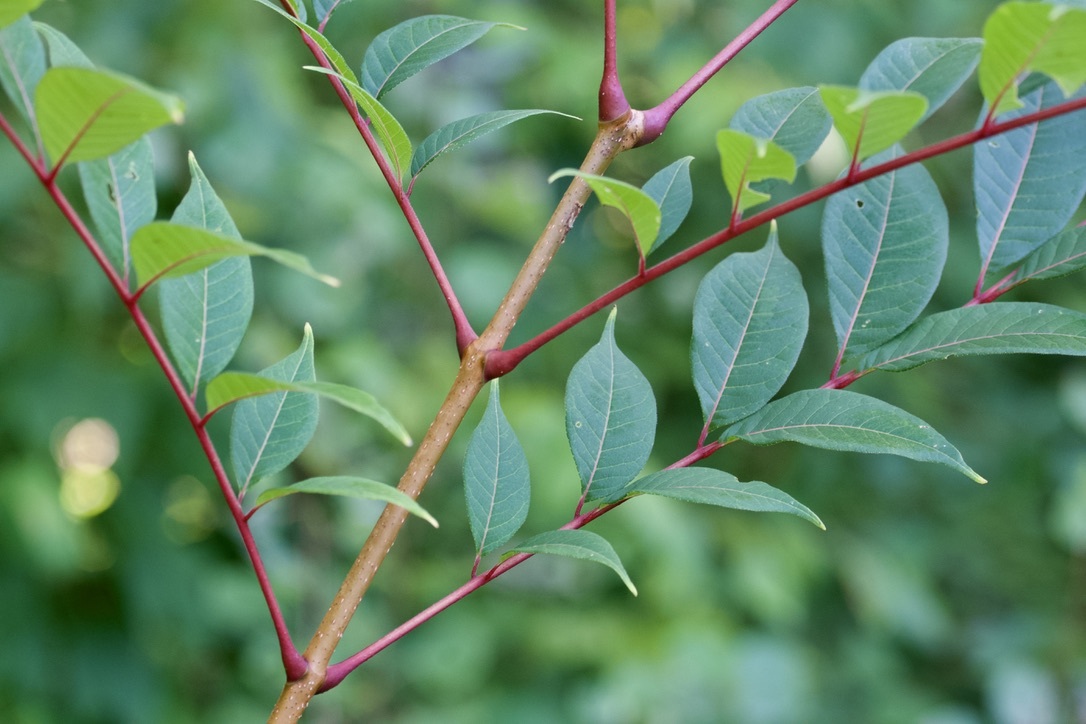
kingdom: Plantae
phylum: Tracheophyta
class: Magnoliopsida
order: Sapindales
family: Rutaceae
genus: Phellodendron
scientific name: Phellodendron amurense
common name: Amur corktree
